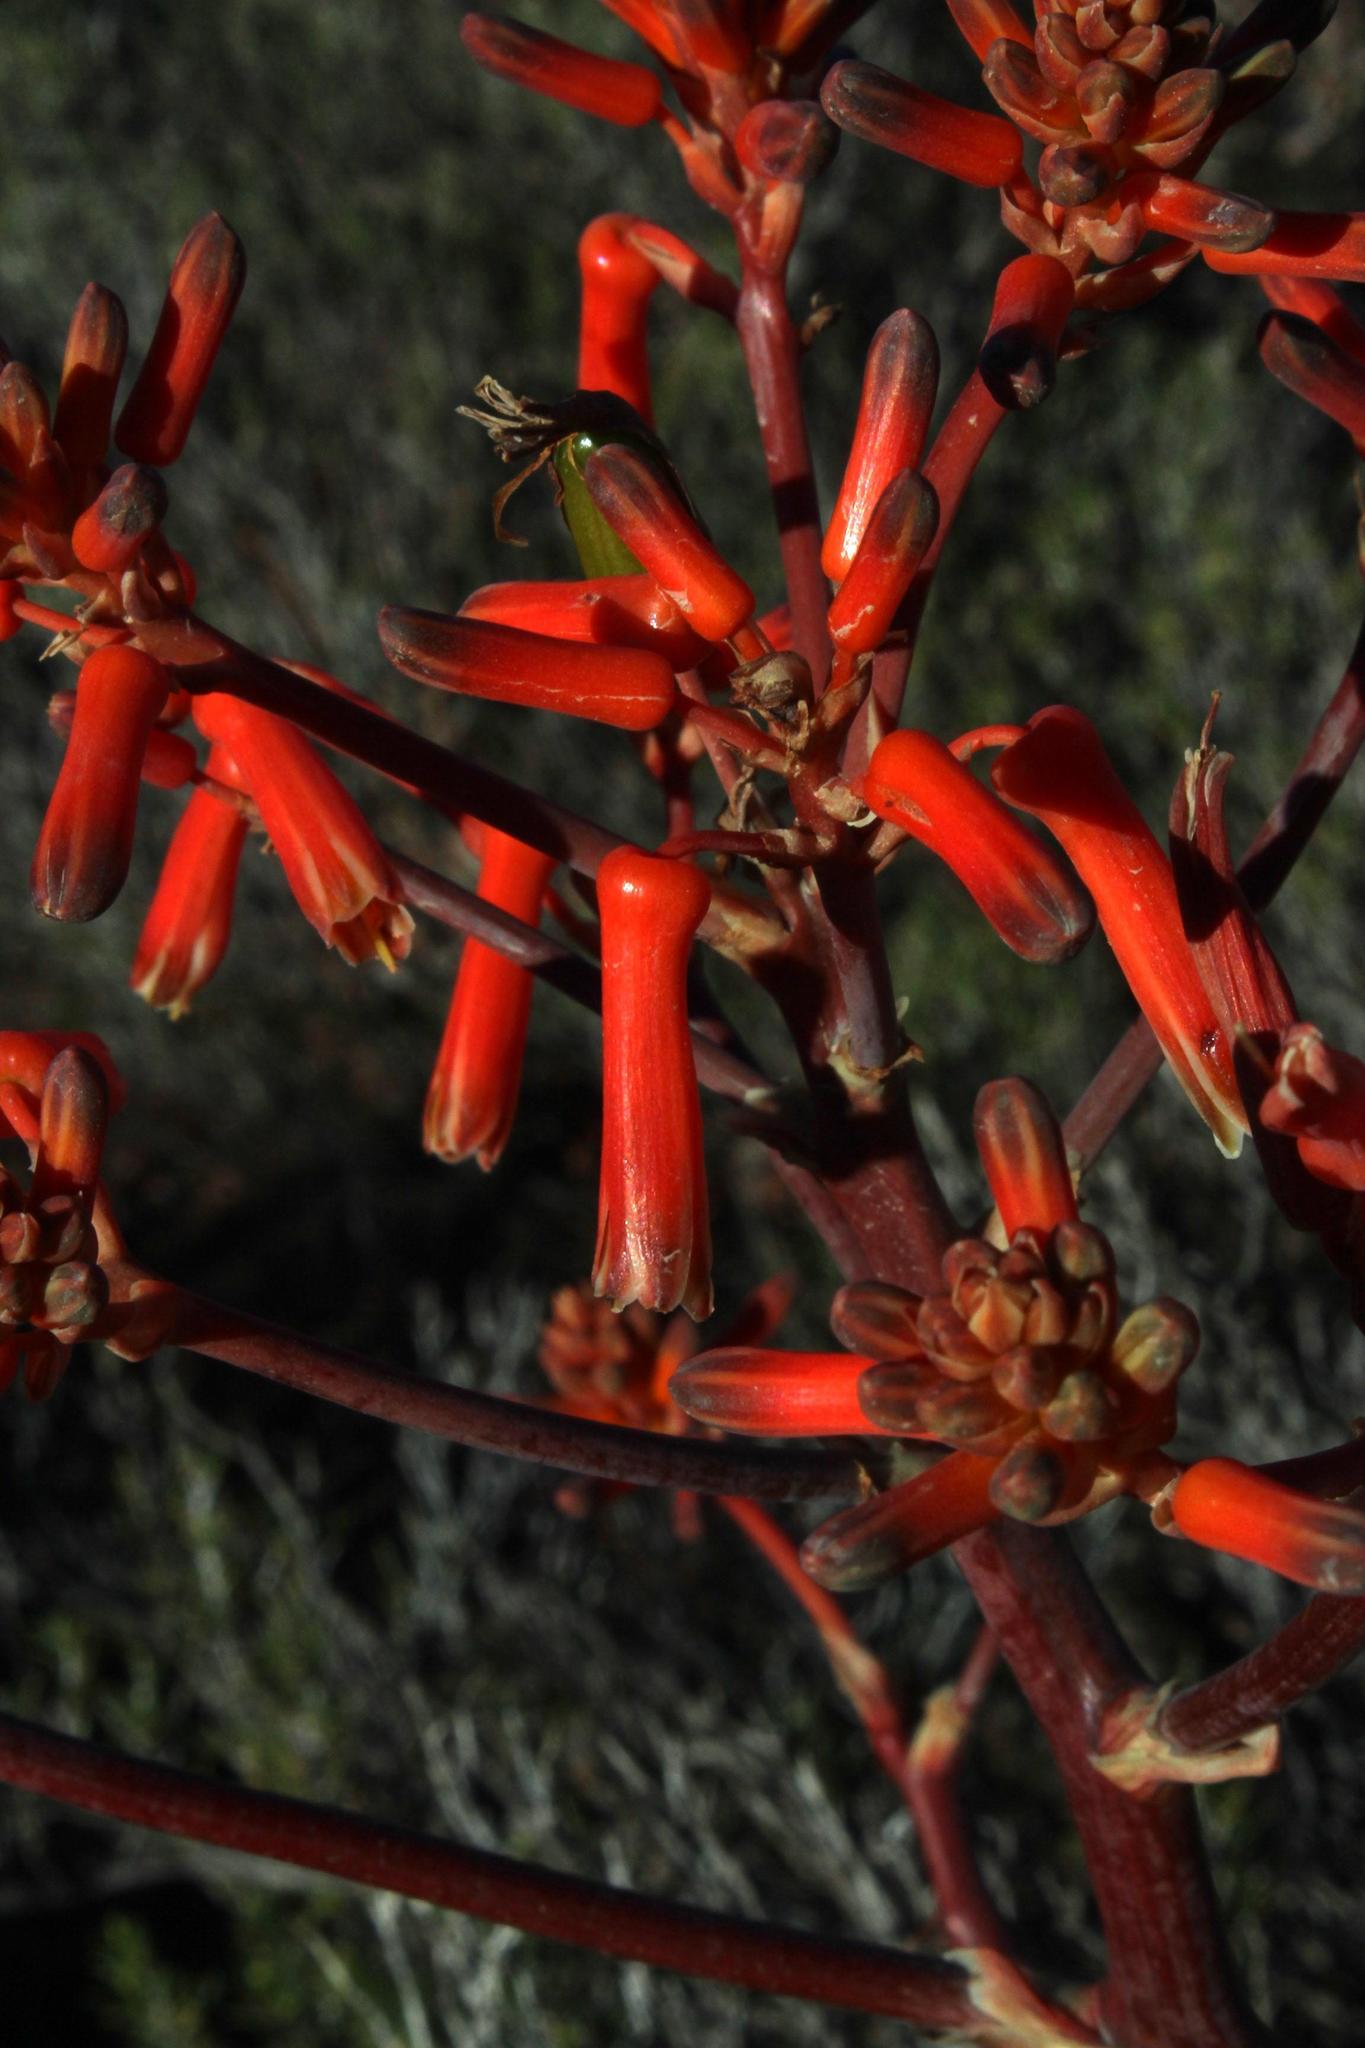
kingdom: Plantae
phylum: Tracheophyta
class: Liliopsida
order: Asparagales
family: Asphodelaceae
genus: Aloe
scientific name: Aloe striata
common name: Coral aloe
